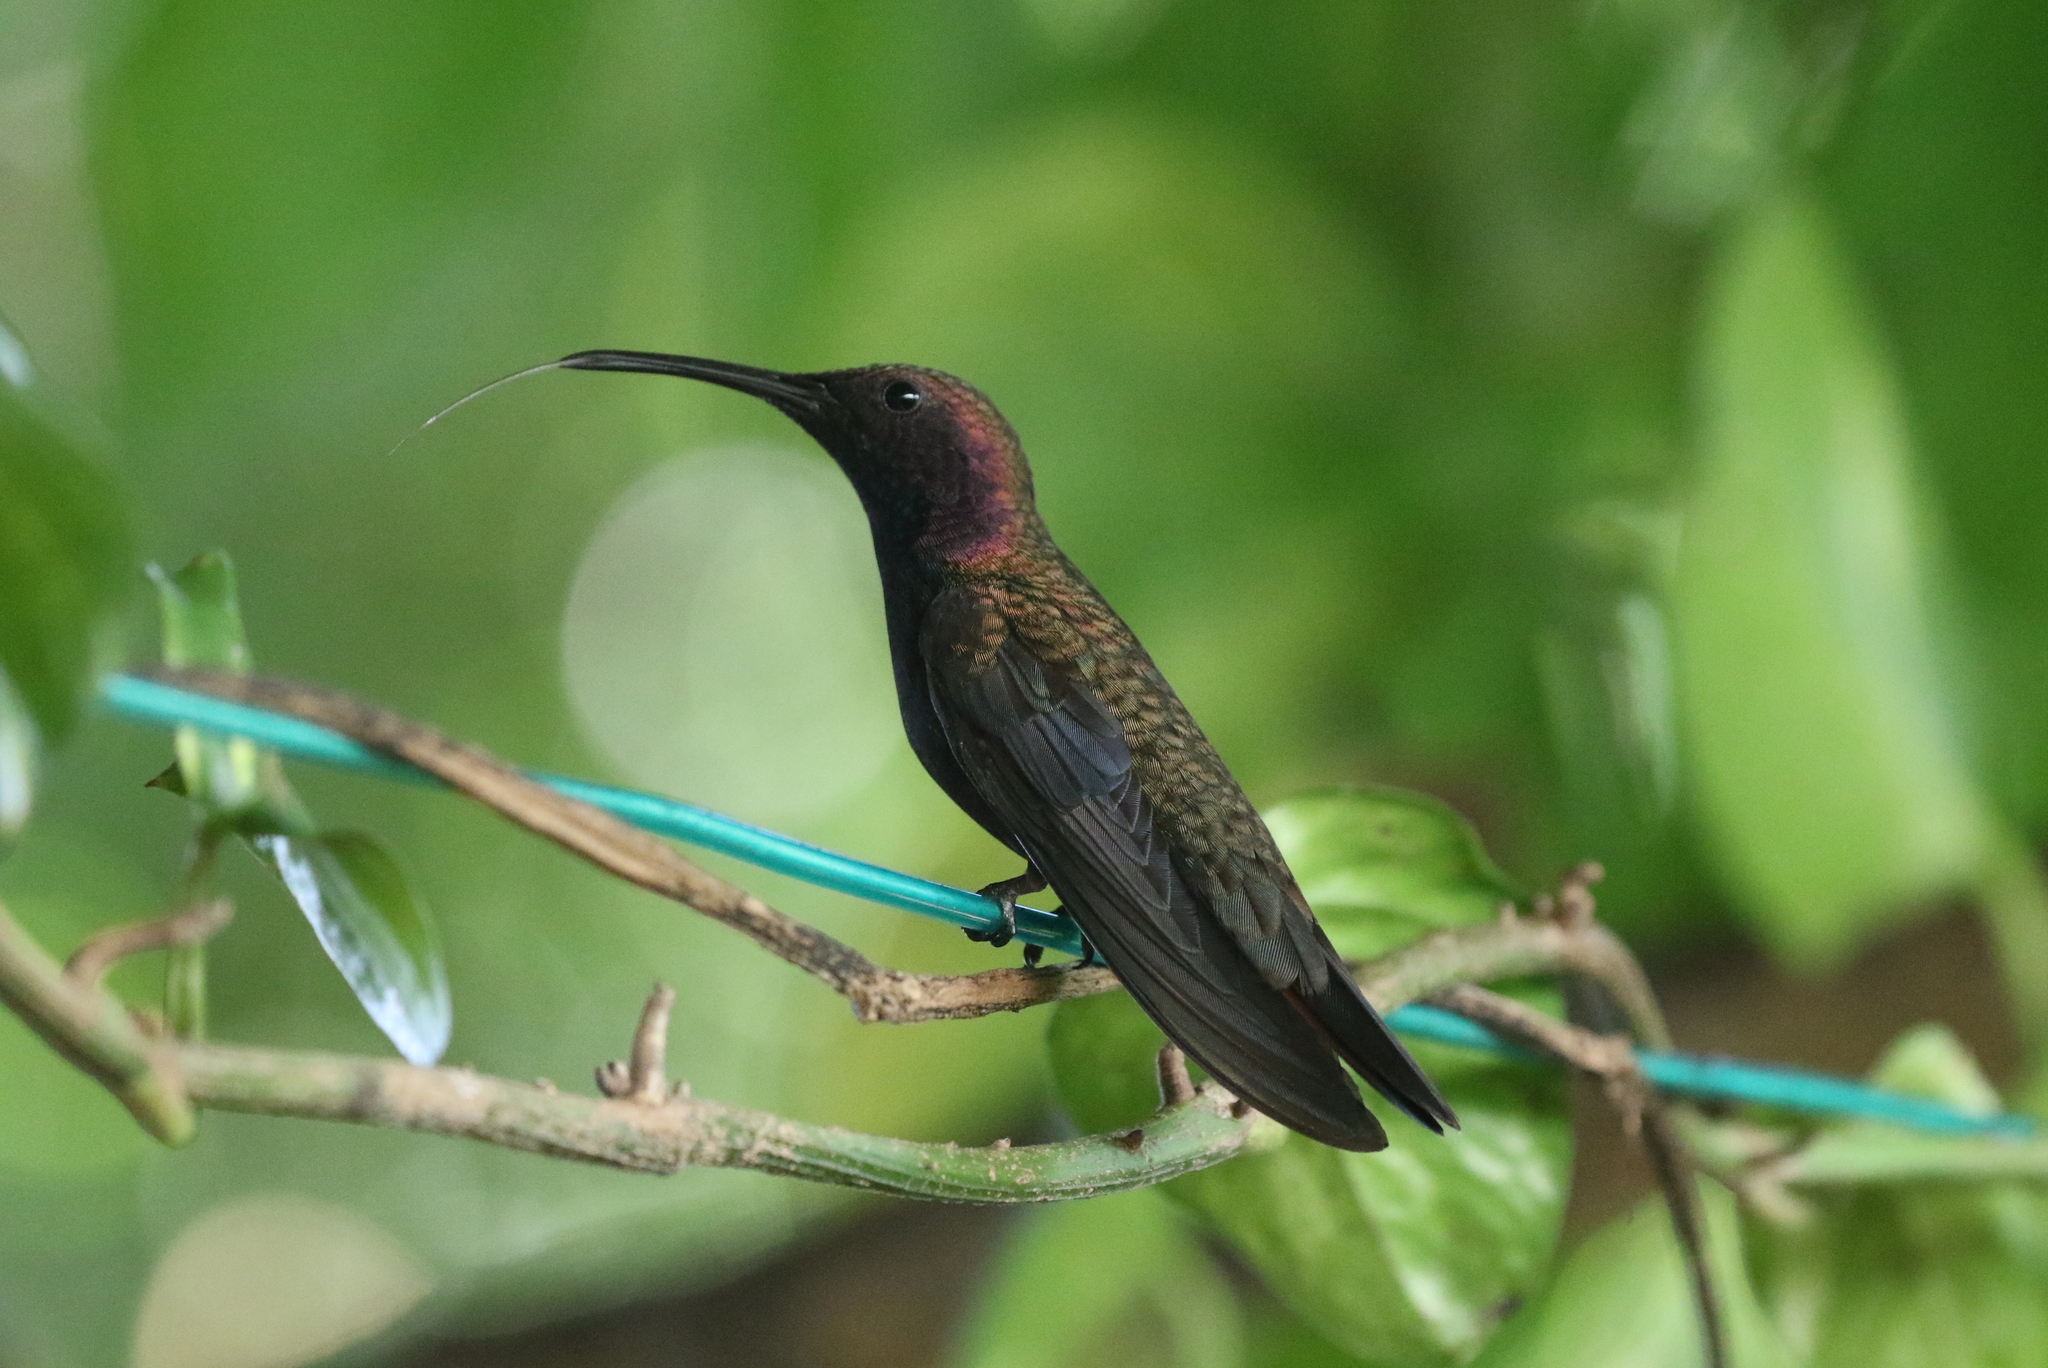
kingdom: Animalia
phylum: Chordata
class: Aves
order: Apodiformes
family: Trochilidae
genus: Anthracothorax
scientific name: Anthracothorax mango
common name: Jamaican mango
